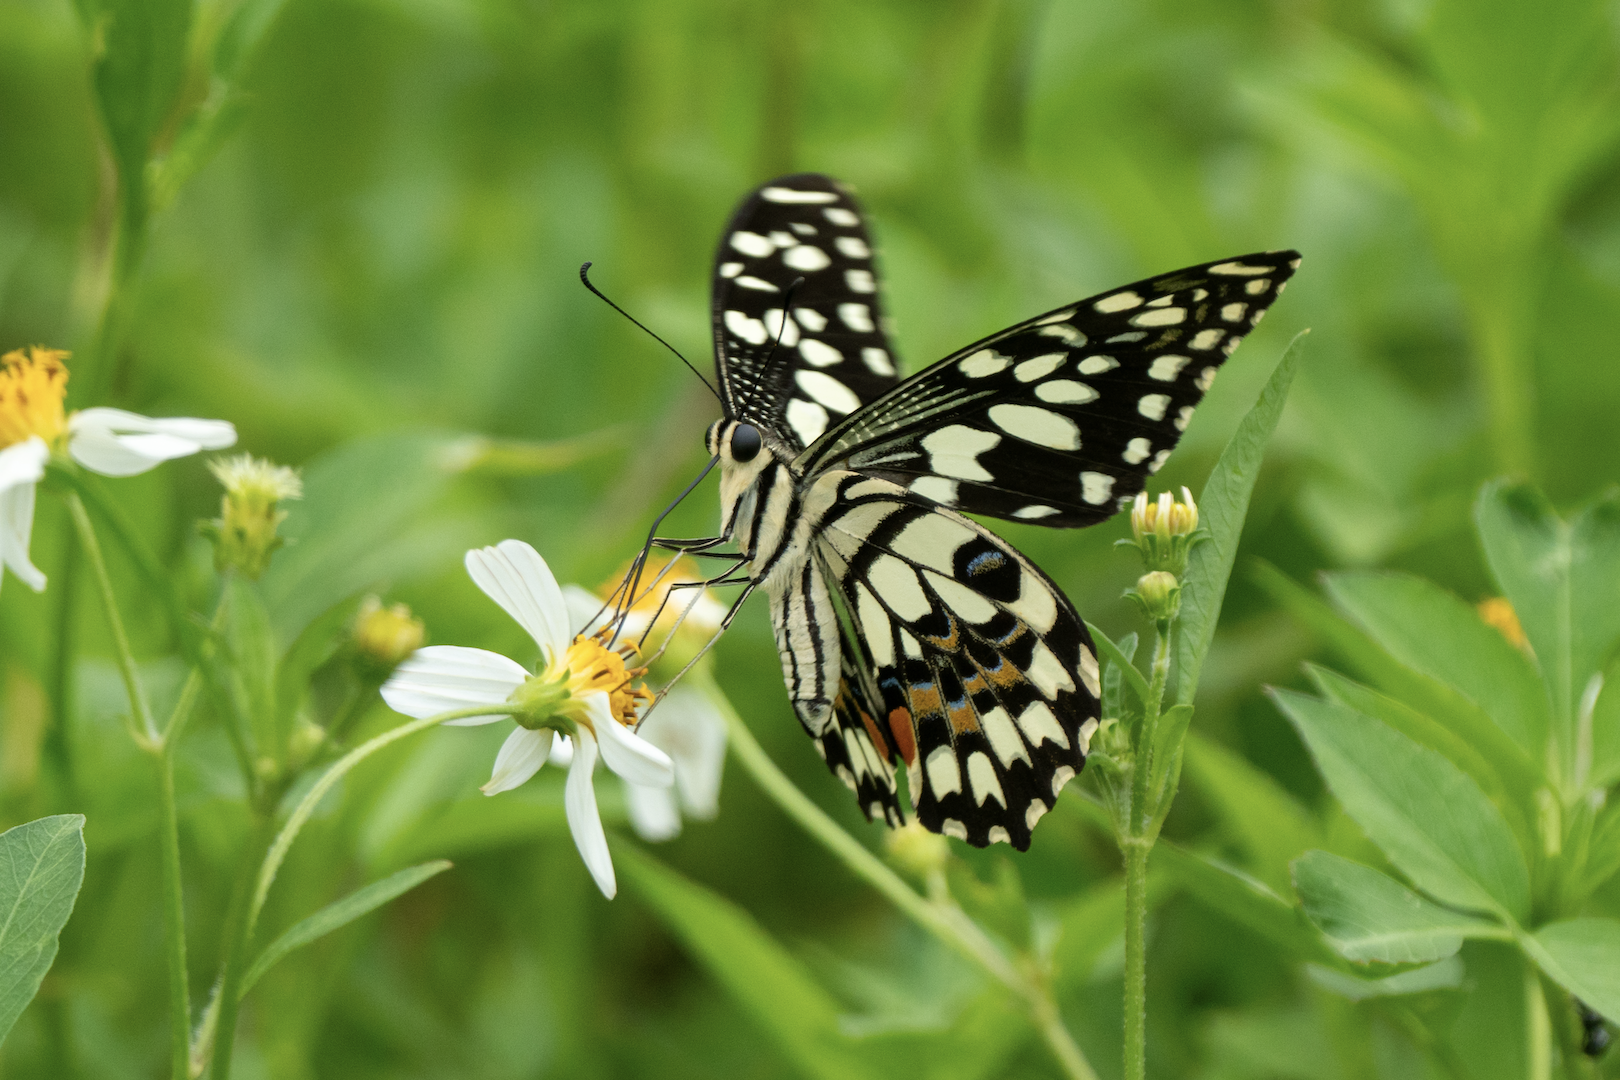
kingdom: Animalia
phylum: Arthropoda
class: Insecta
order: Lepidoptera
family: Papilionidae
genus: Papilio
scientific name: Papilio demoleus
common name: Lime butterfly
